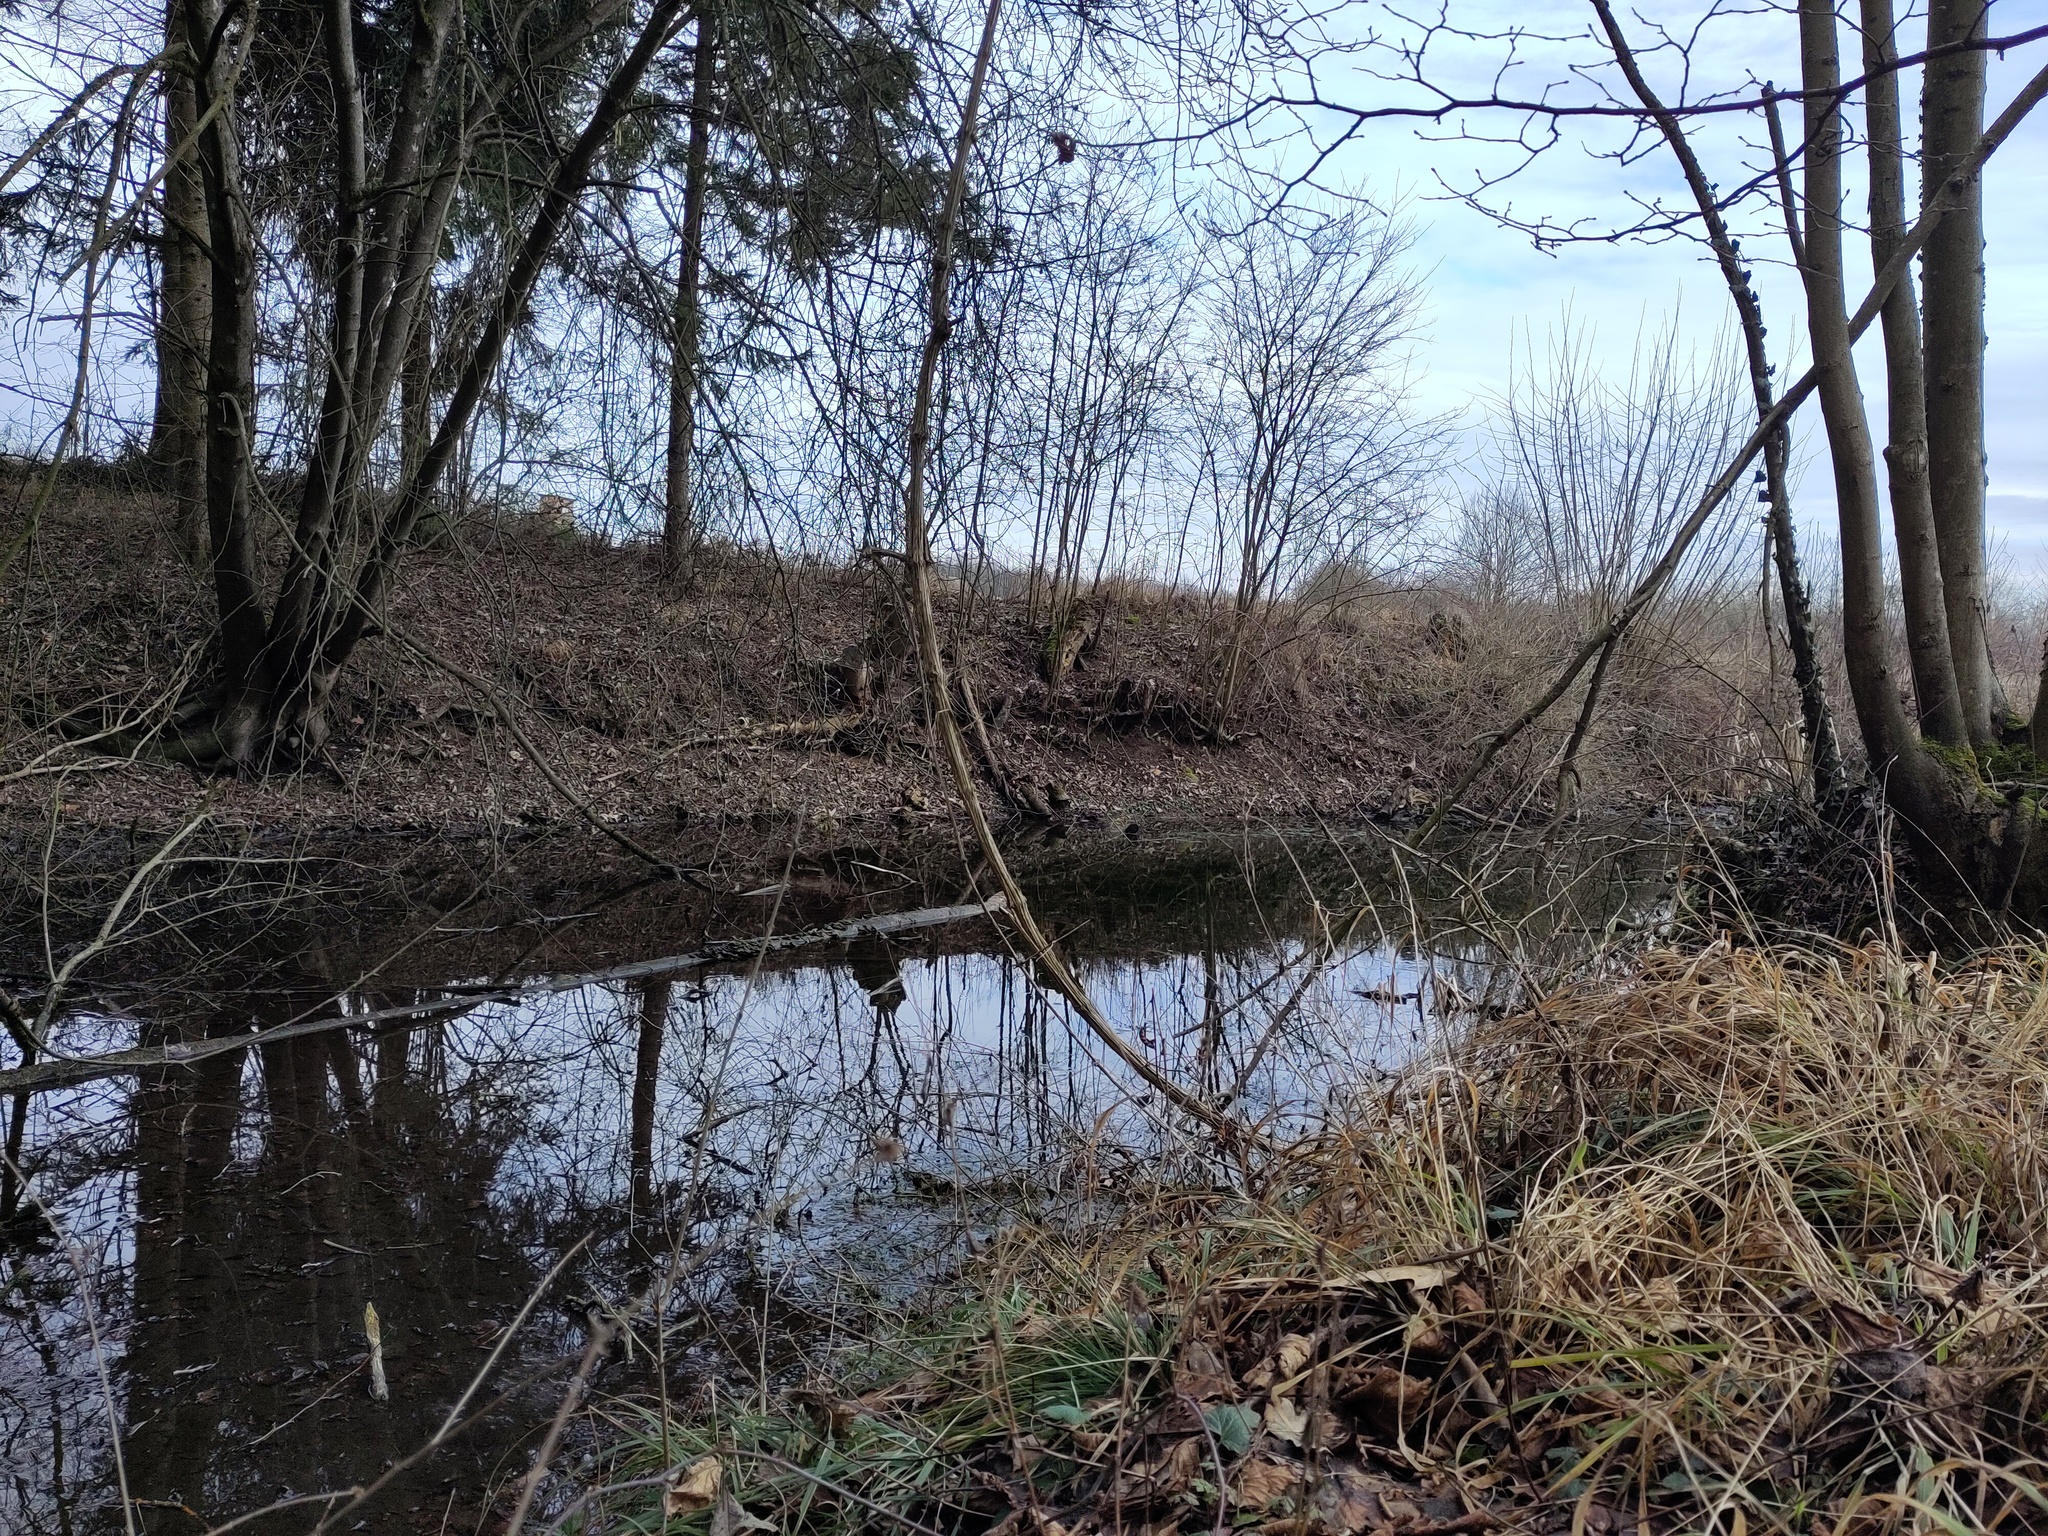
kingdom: Plantae
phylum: Tracheophyta
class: Magnoliopsida
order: Ranunculales
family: Ranunculaceae
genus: Clematis
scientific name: Clematis vitalba
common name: Evergreen clematis
